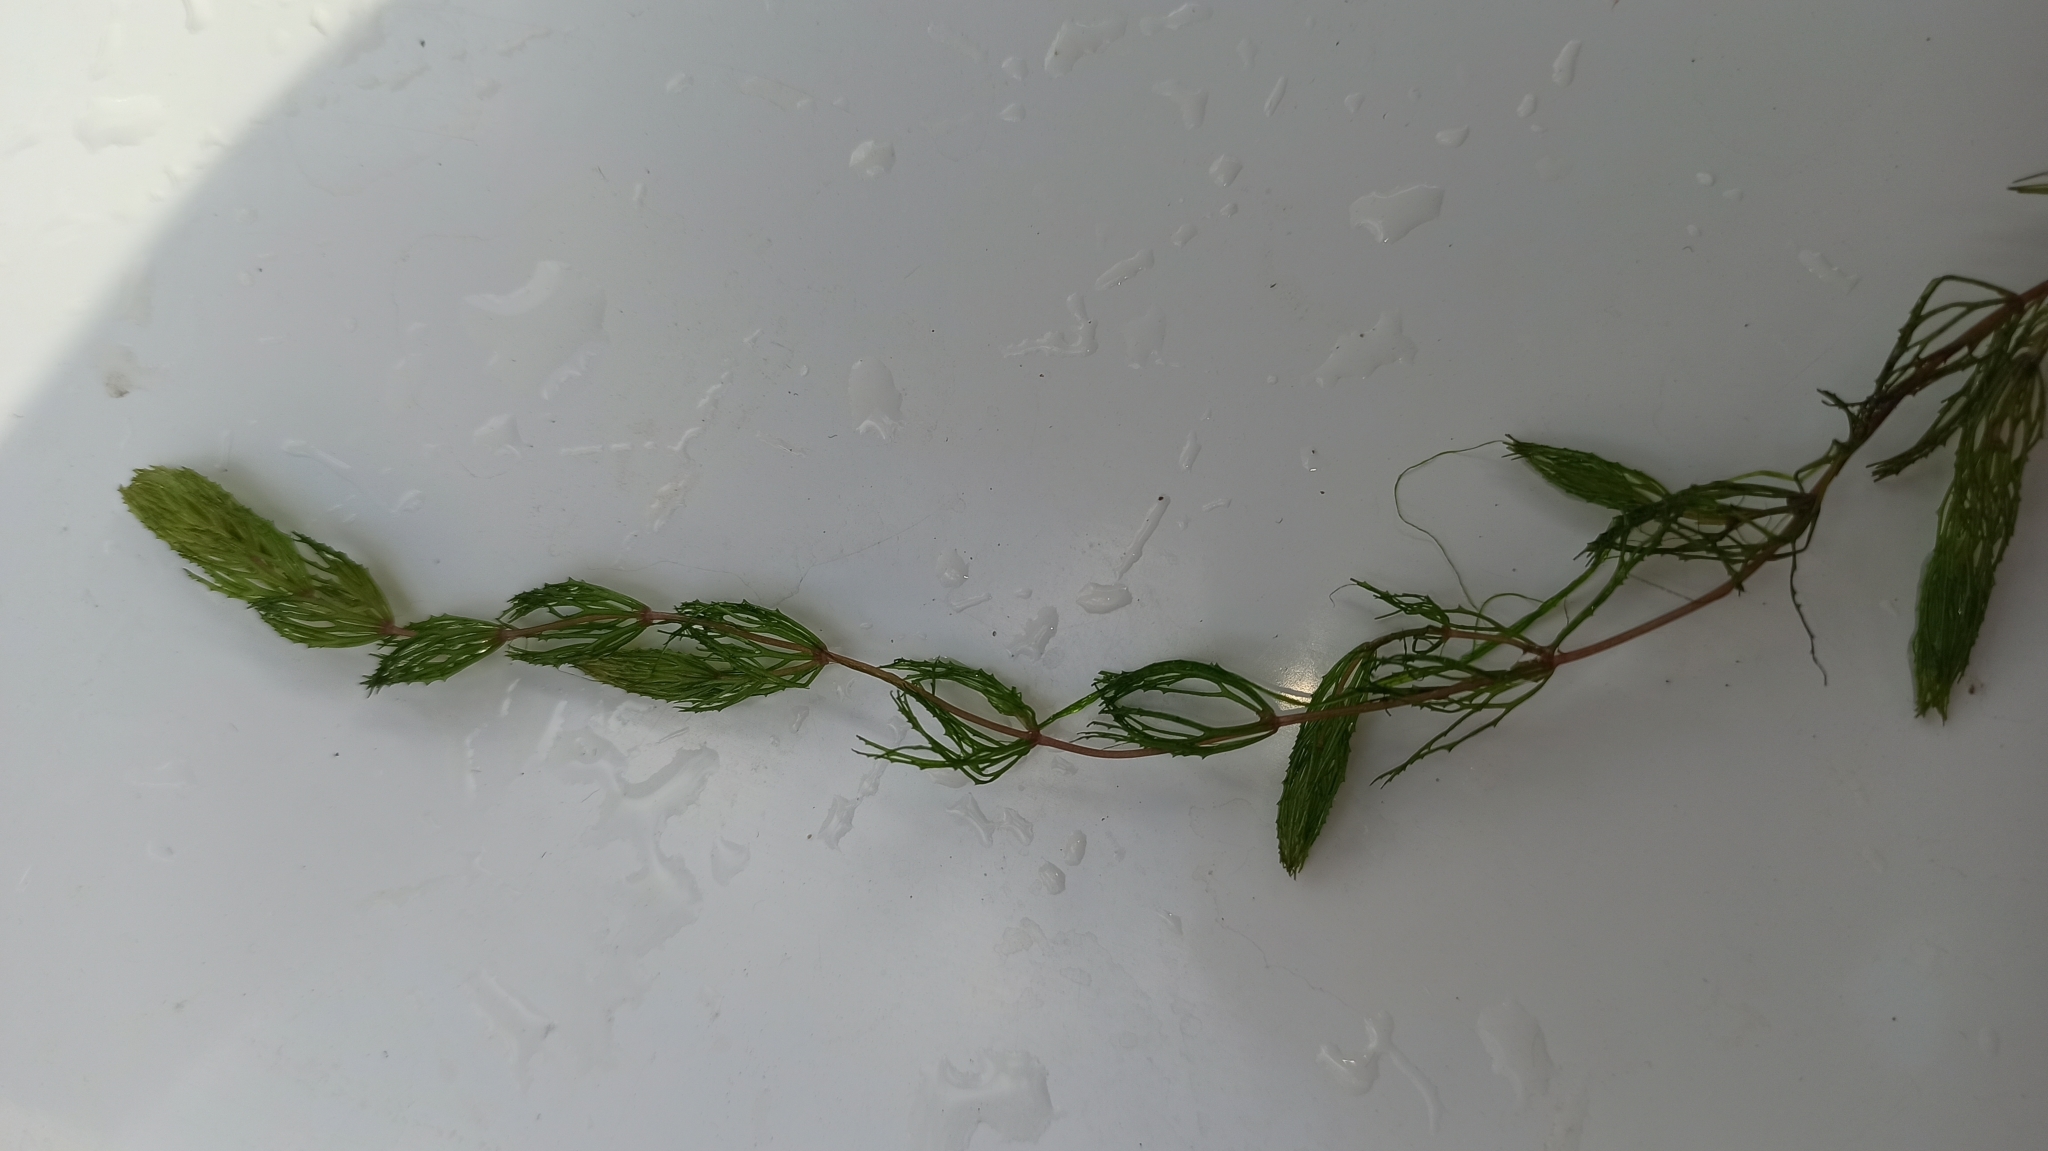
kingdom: Plantae
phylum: Tracheophyta
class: Magnoliopsida
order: Ceratophyllales
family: Ceratophyllaceae
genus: Ceratophyllum
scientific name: Ceratophyllum demersum
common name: Rigid hornwort
